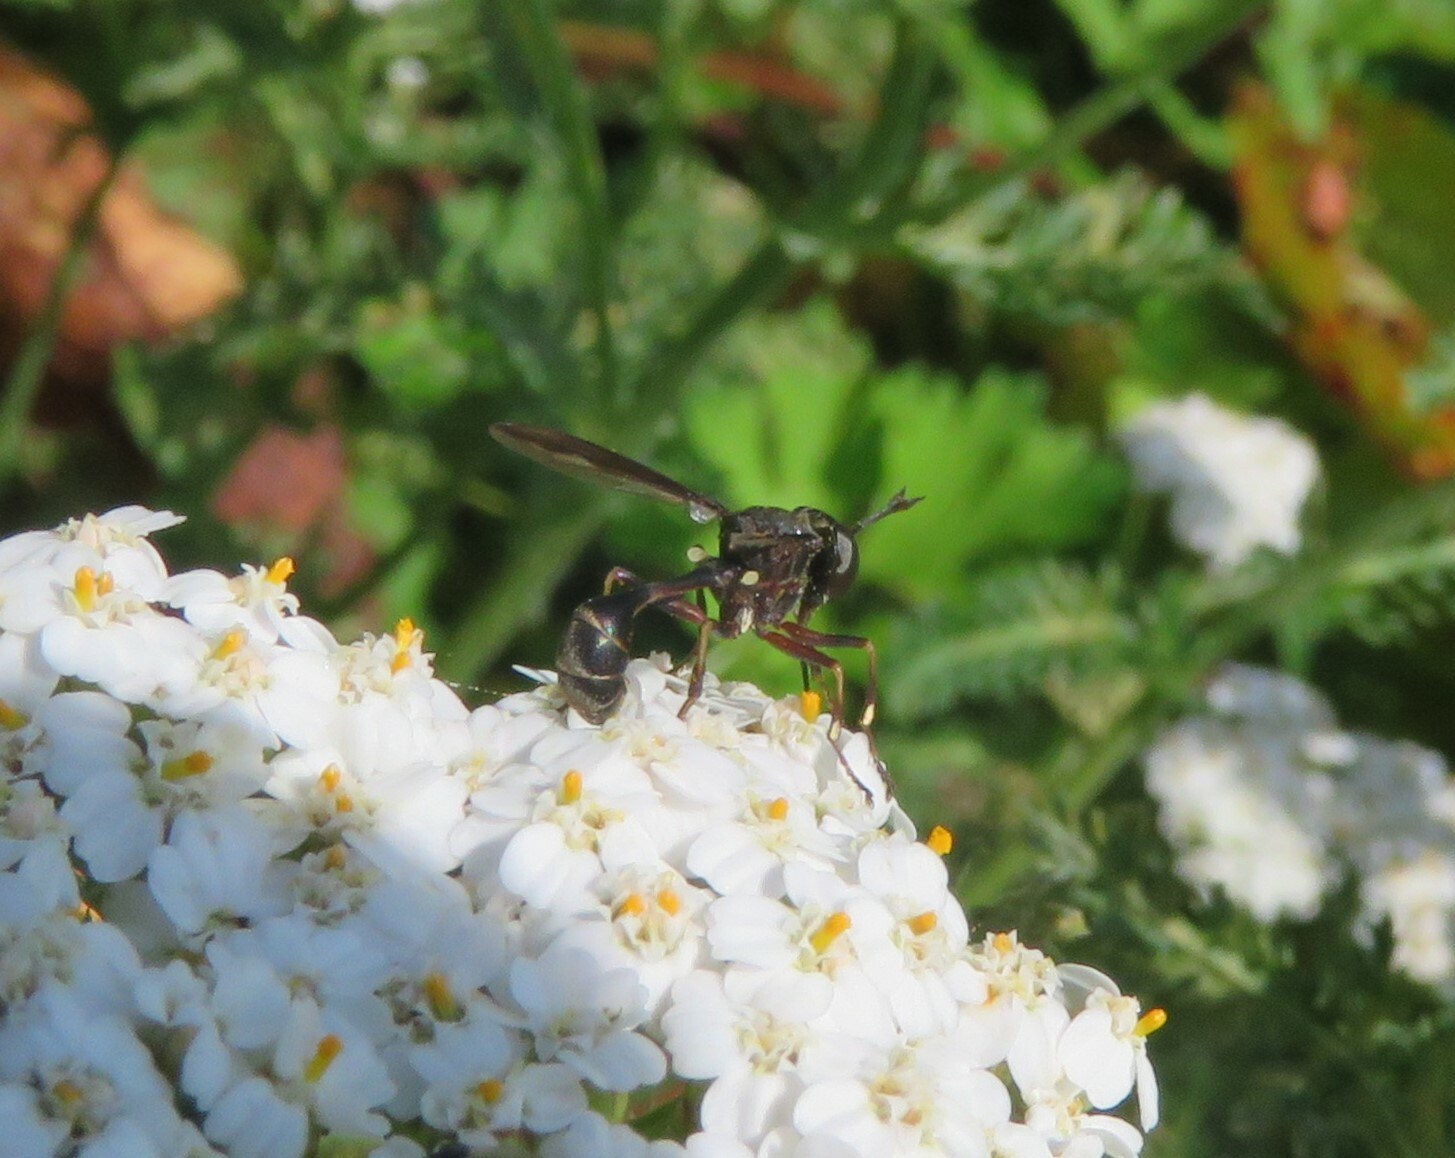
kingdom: Animalia
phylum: Arthropoda
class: Insecta
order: Diptera
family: Conopidae
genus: Physocephala
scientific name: Physocephala furcillata
